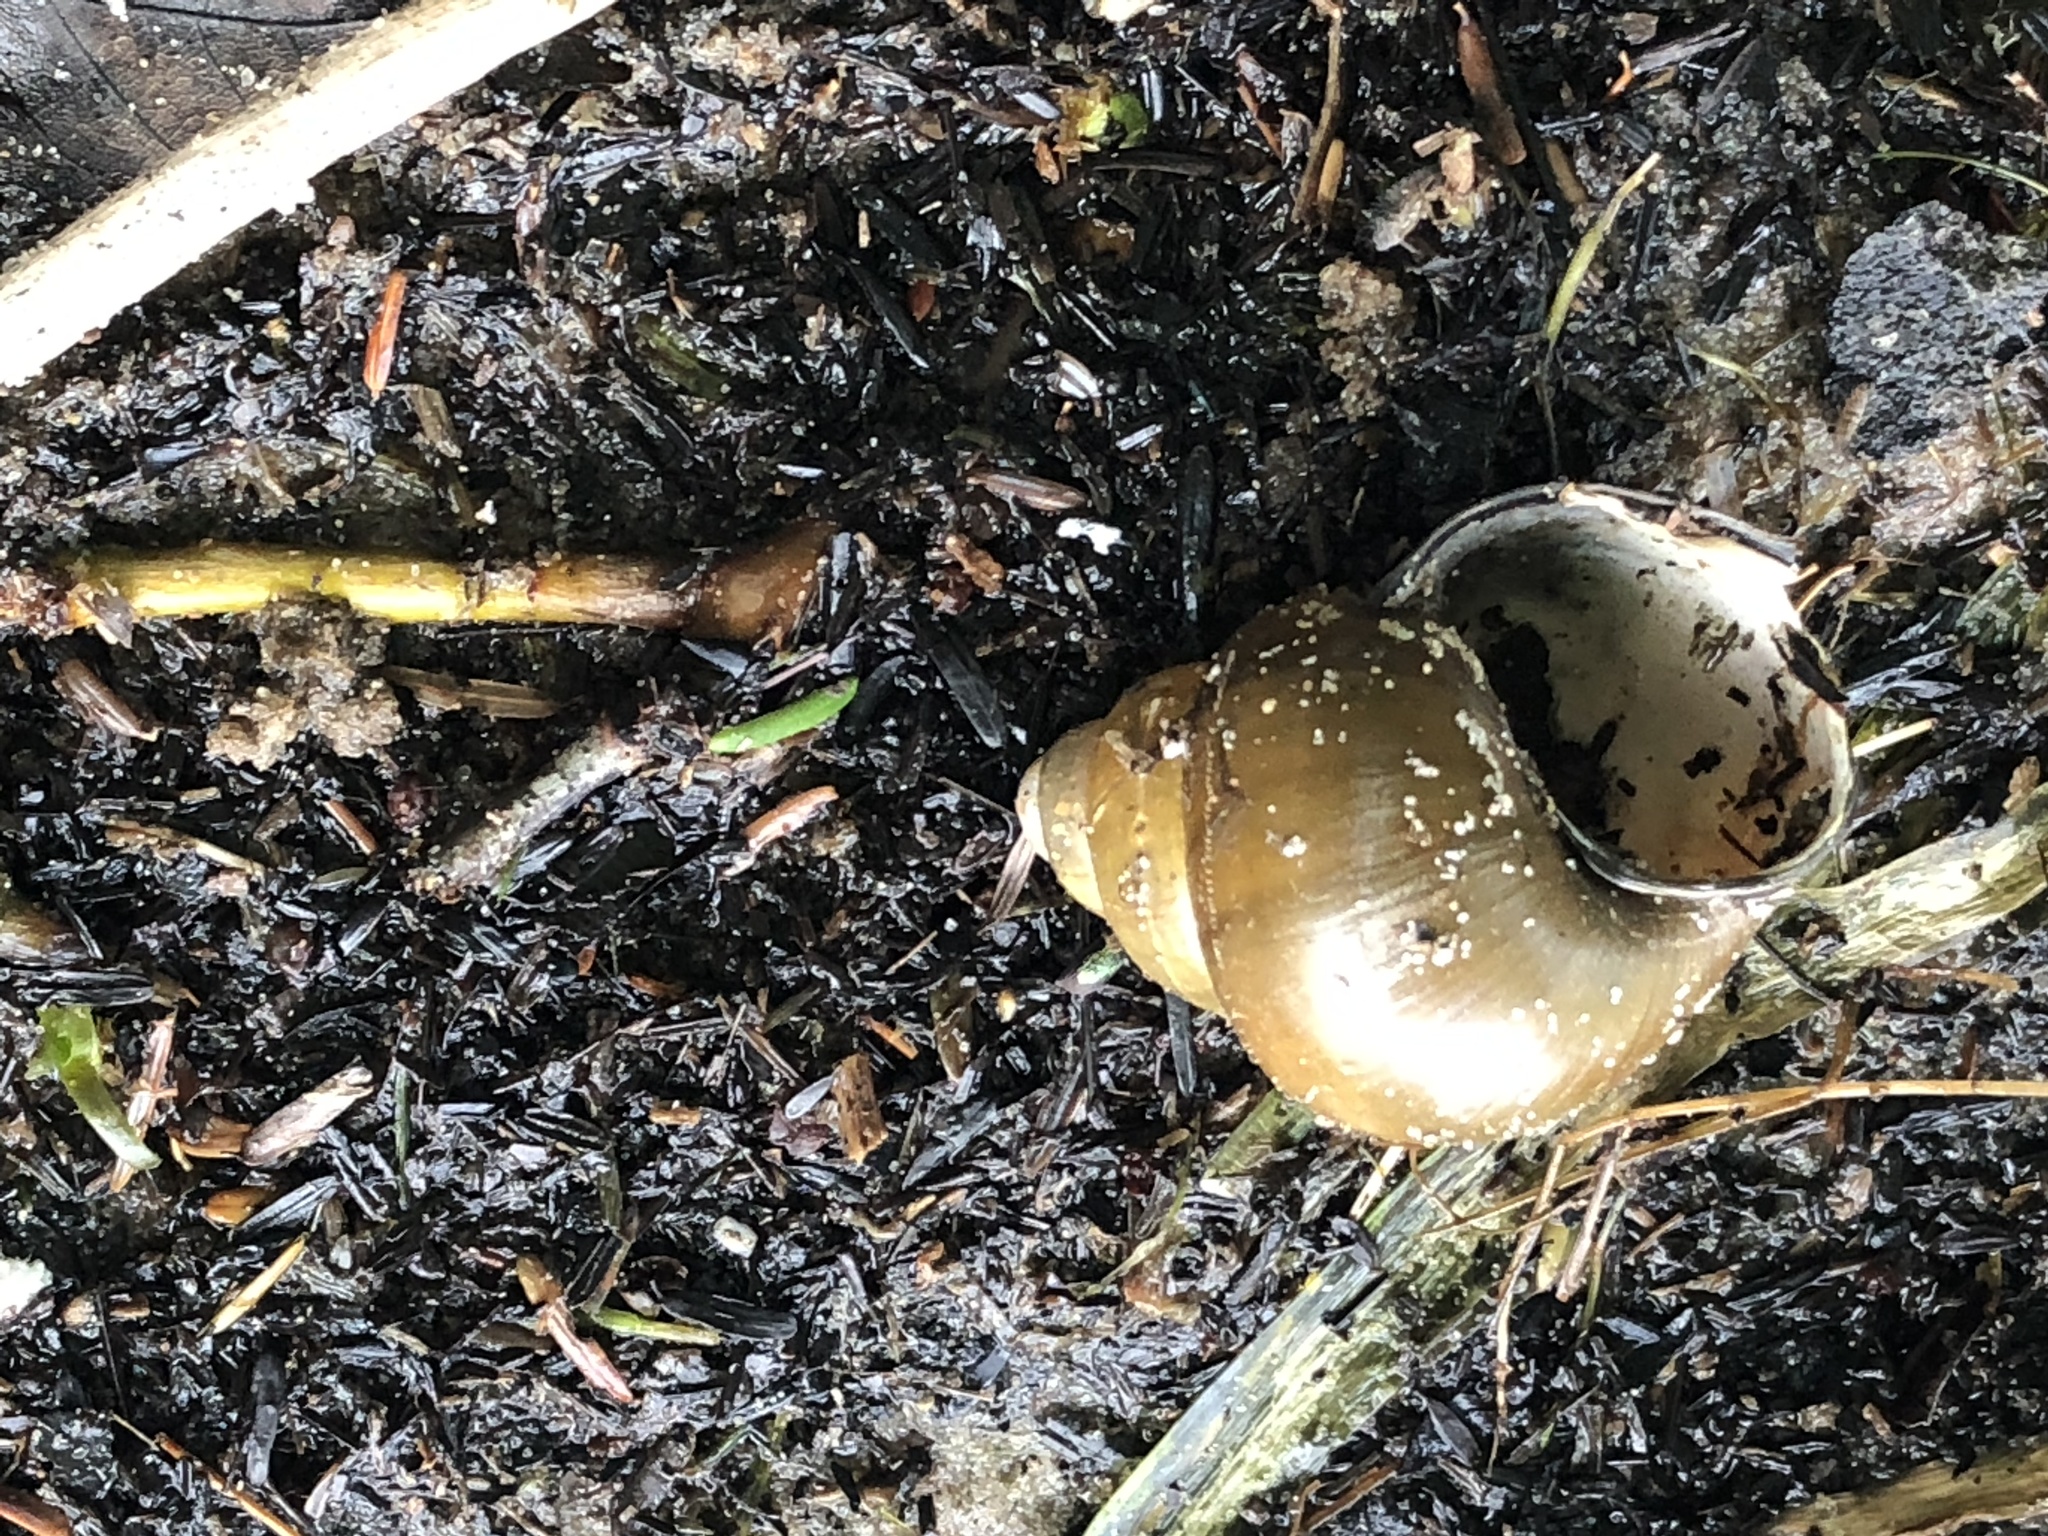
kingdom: Animalia
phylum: Mollusca
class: Gastropoda
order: Architaenioglossa
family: Viviparidae
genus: Cipangopaludina
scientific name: Cipangopaludina chinensis
